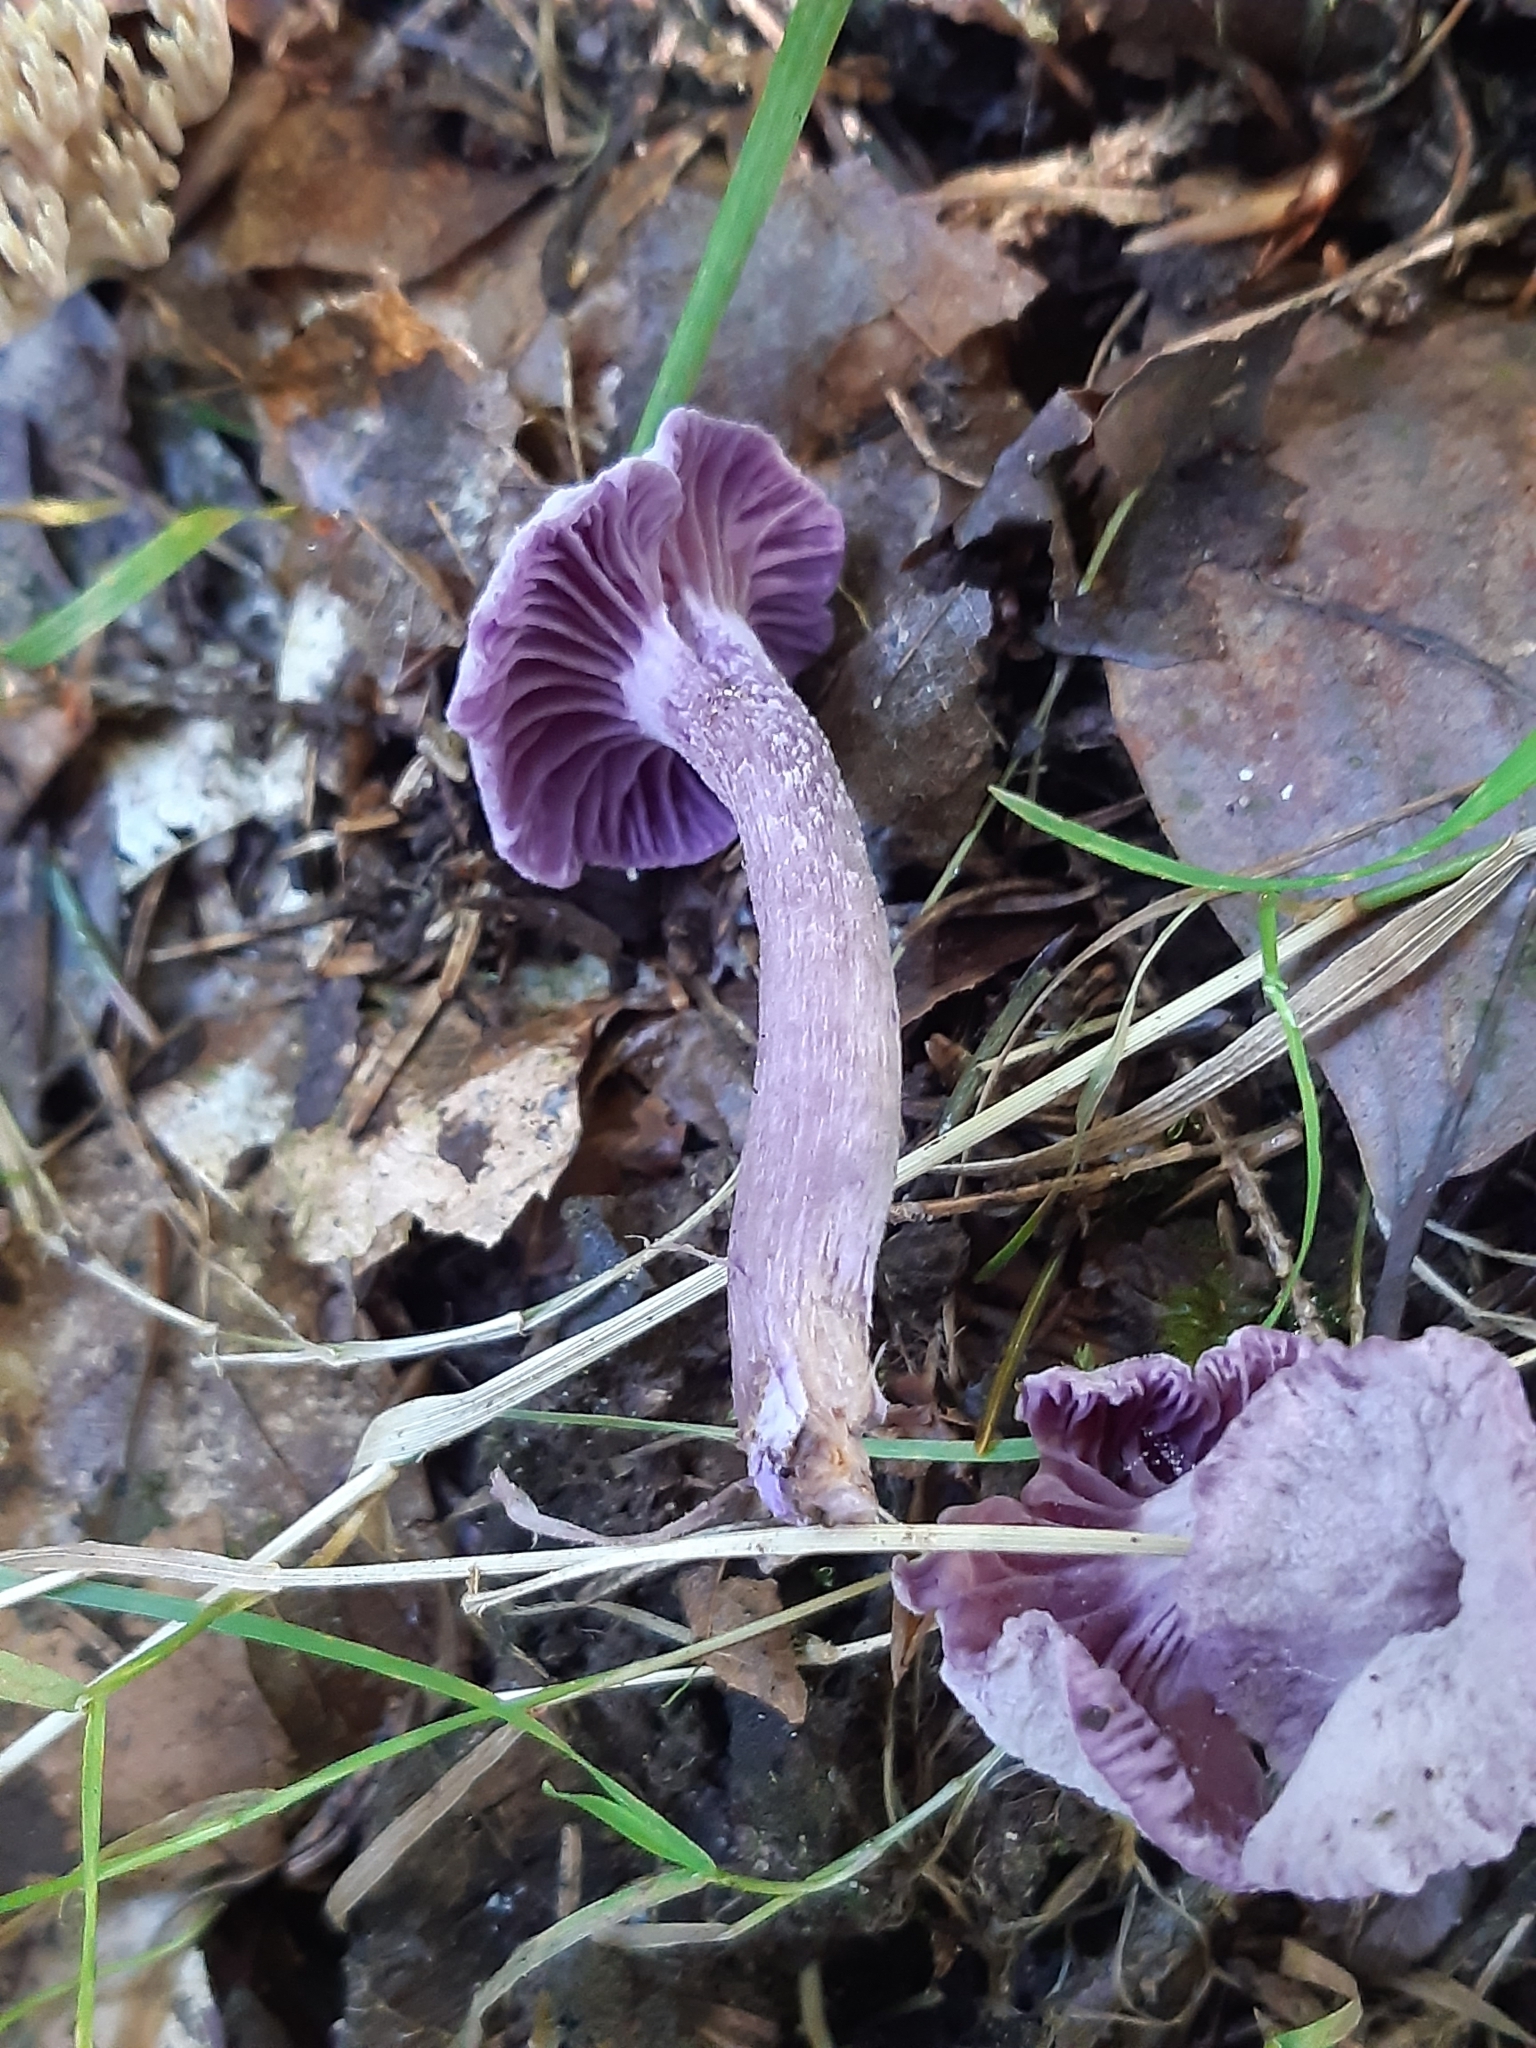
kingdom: Fungi
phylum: Basidiomycota
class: Agaricomycetes
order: Agaricales
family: Hydnangiaceae
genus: Laccaria
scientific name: Laccaria amethystina
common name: Amethyst deceiver
